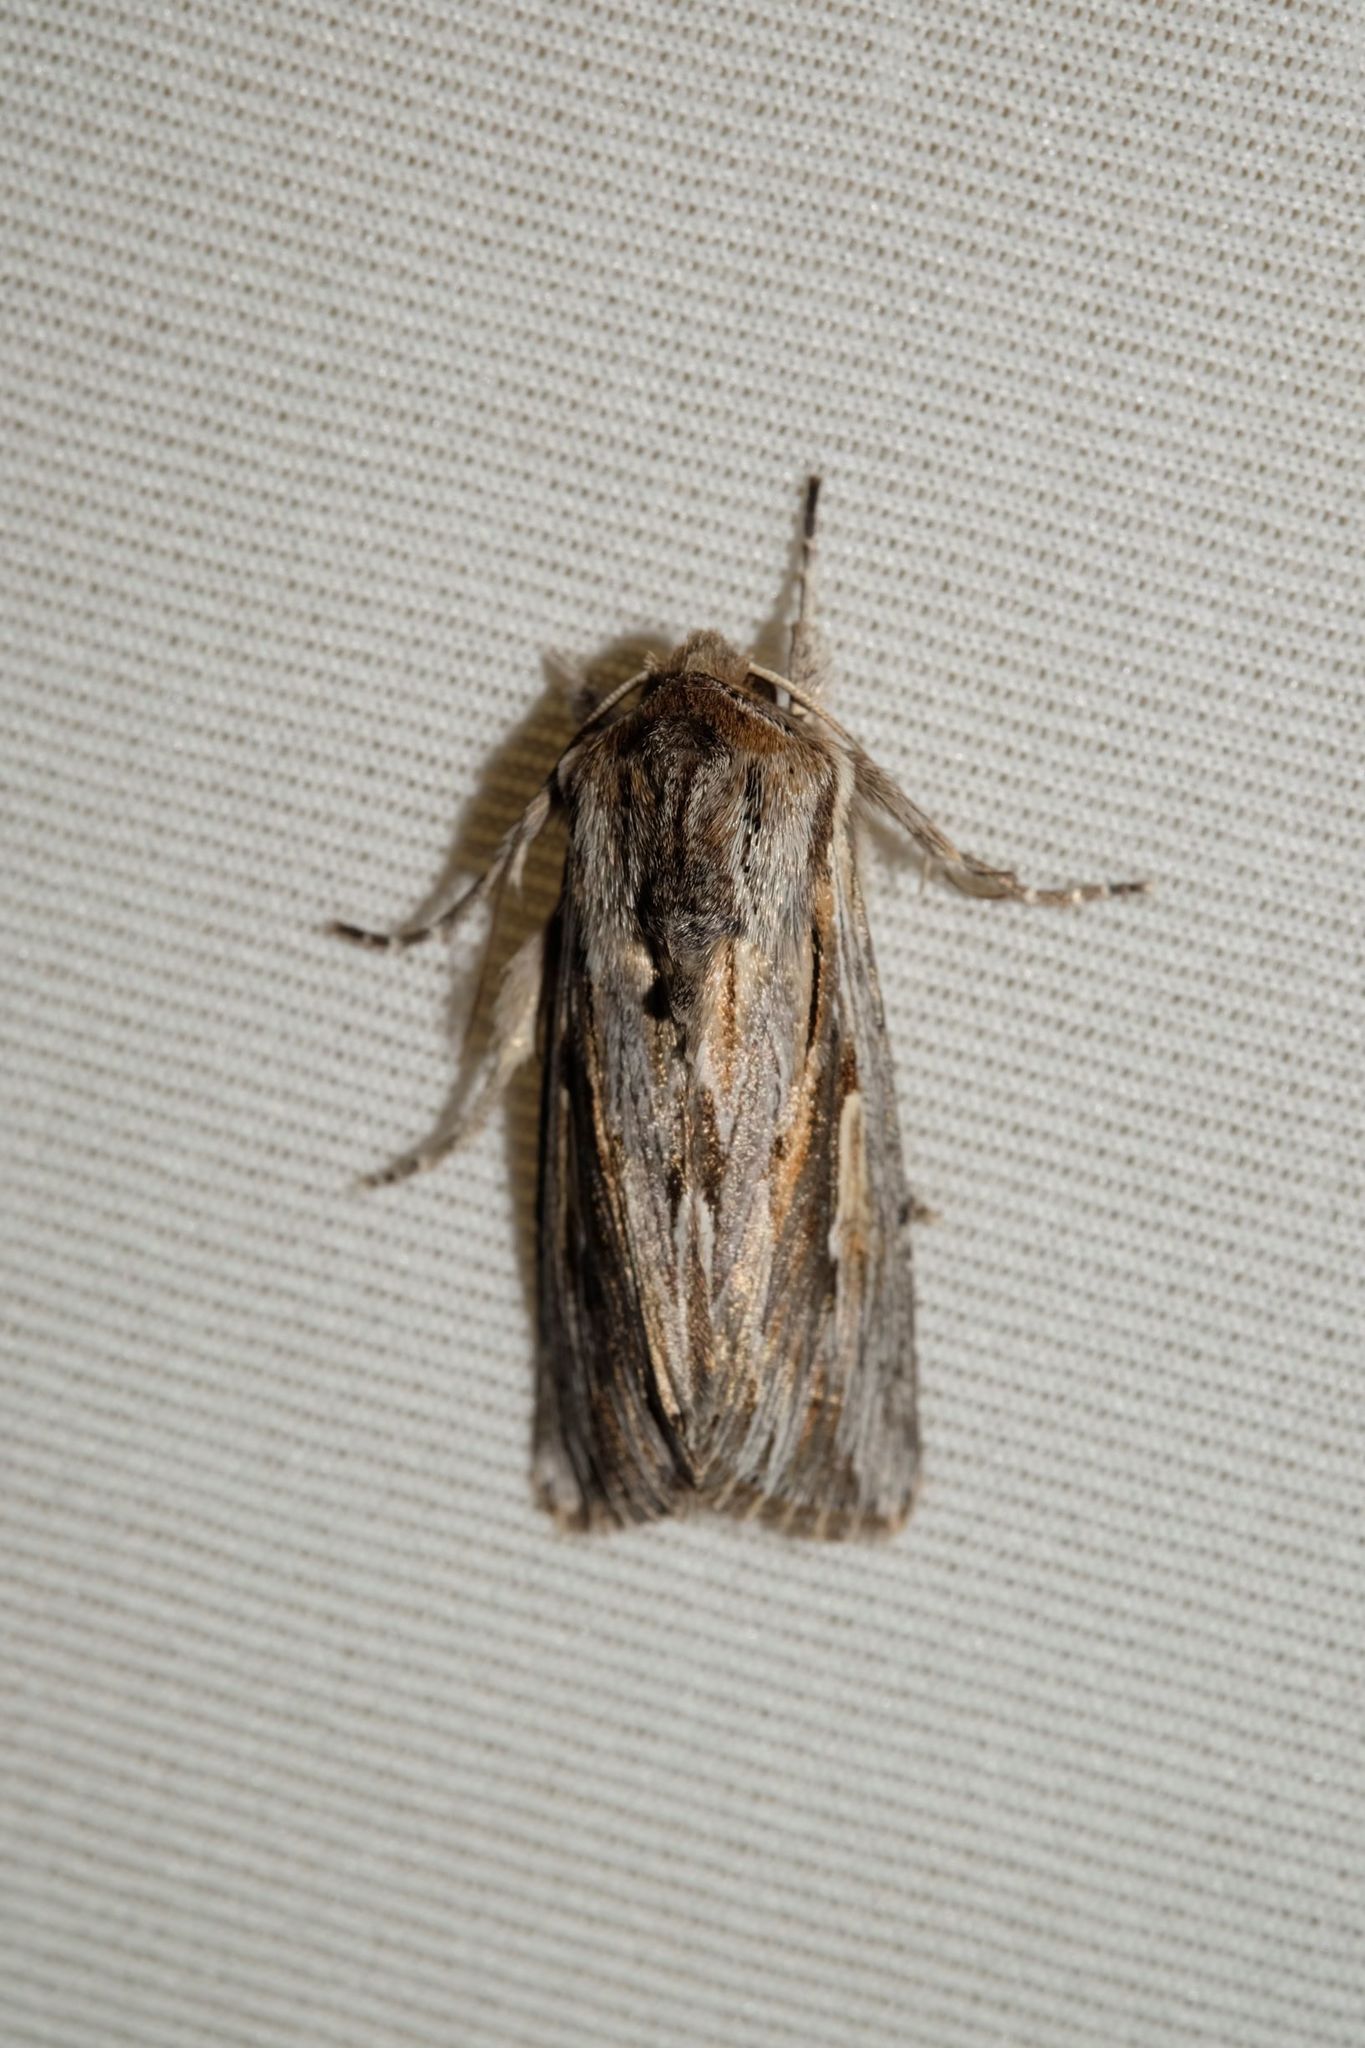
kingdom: Animalia
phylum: Arthropoda
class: Insecta
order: Lepidoptera
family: Noctuidae
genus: Persectania
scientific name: Persectania ewingii
